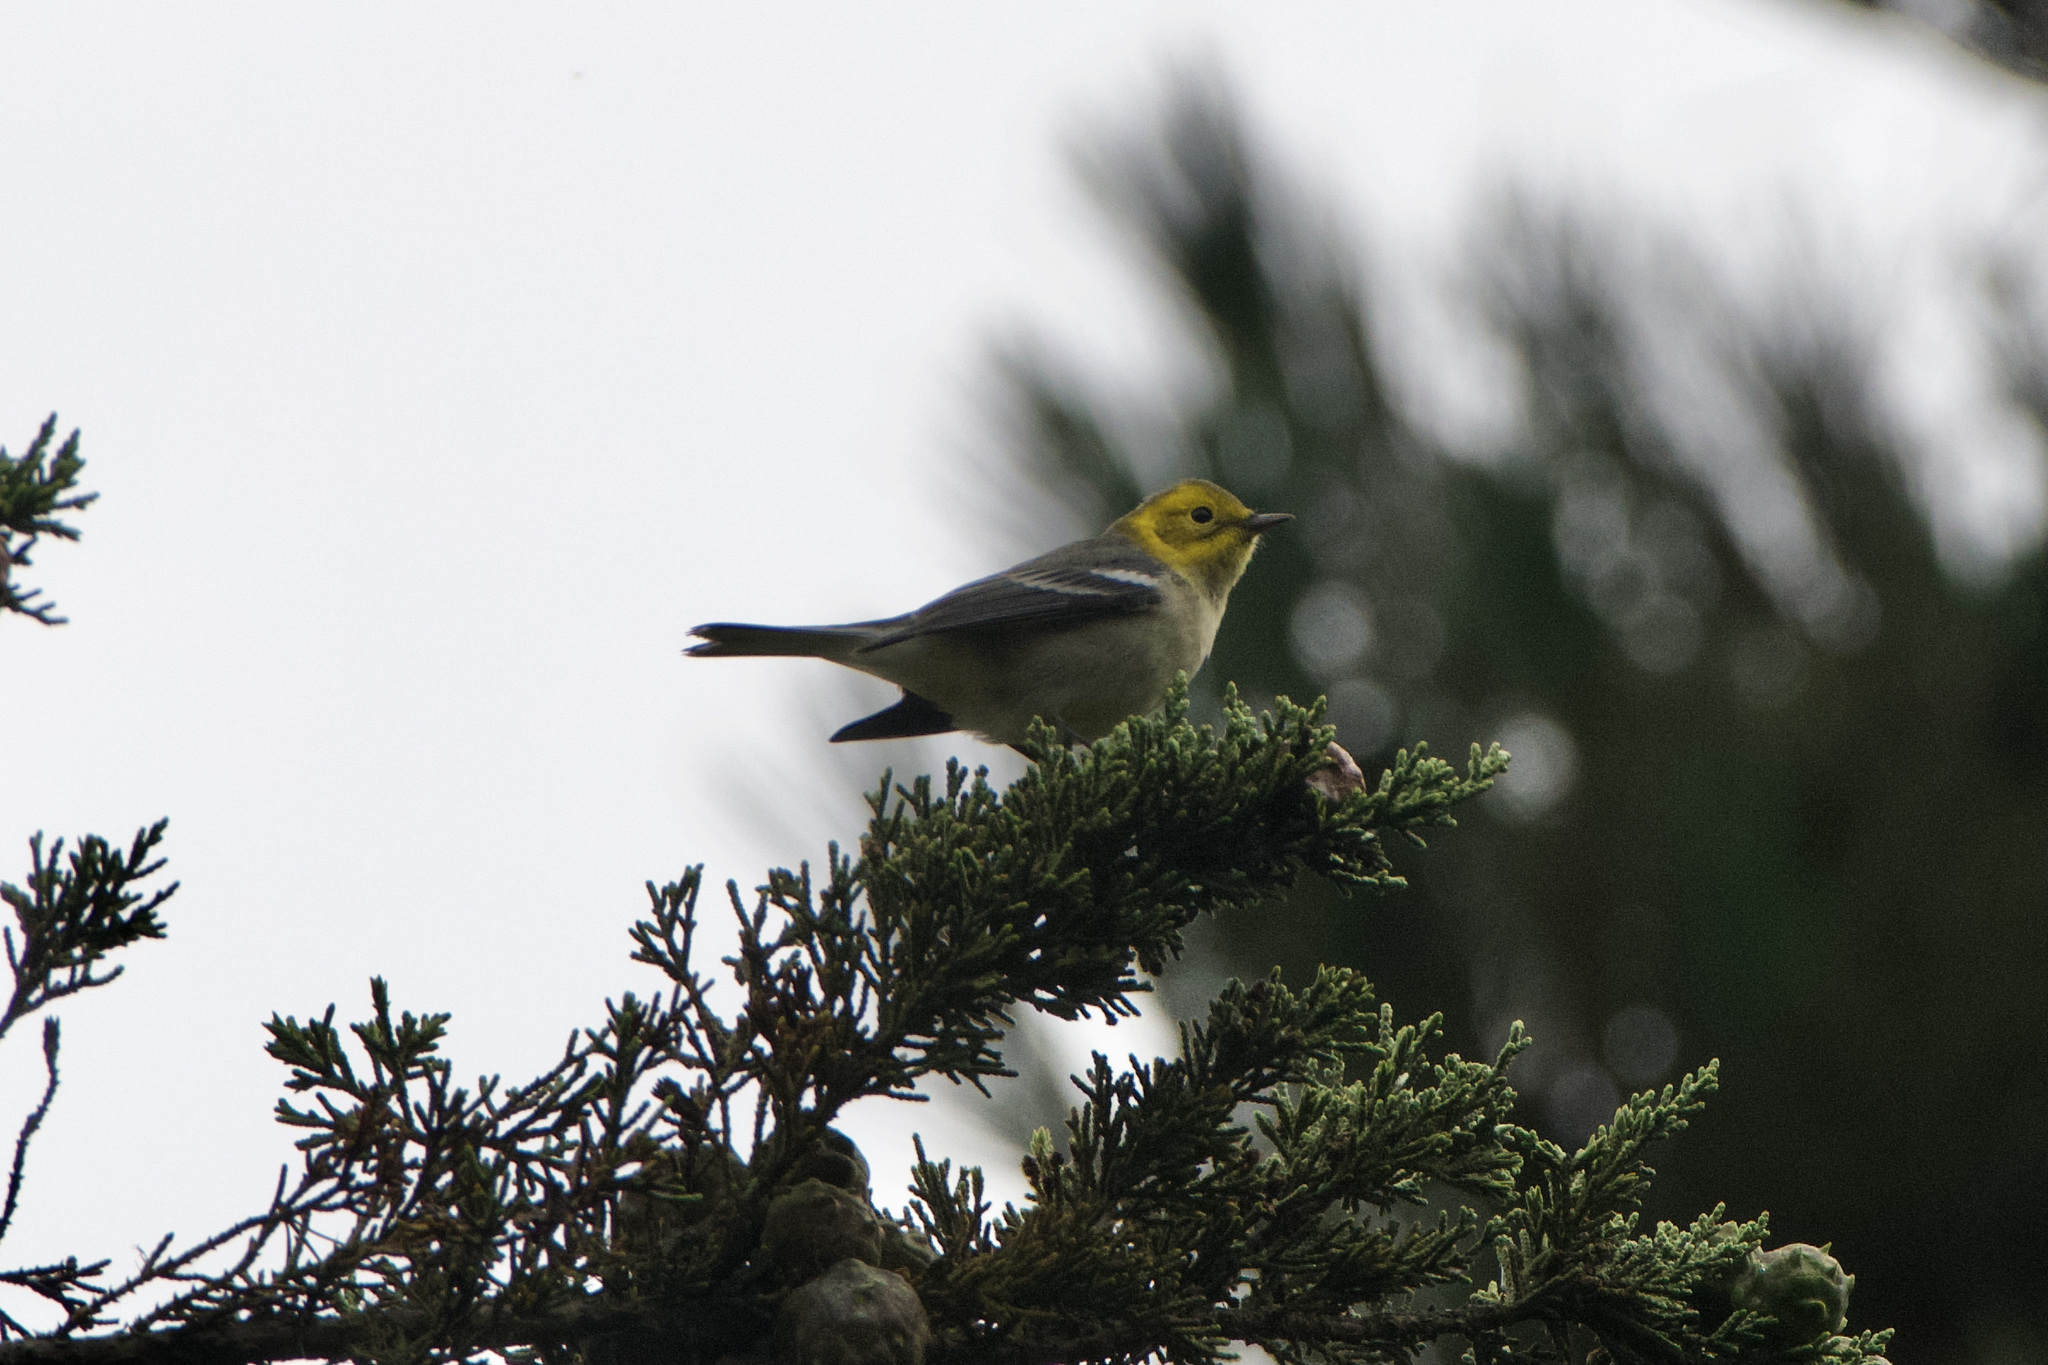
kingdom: Animalia
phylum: Chordata
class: Aves
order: Passeriformes
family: Parulidae
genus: Setophaga
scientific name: Setophaga occidentalis
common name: Hermit warbler
